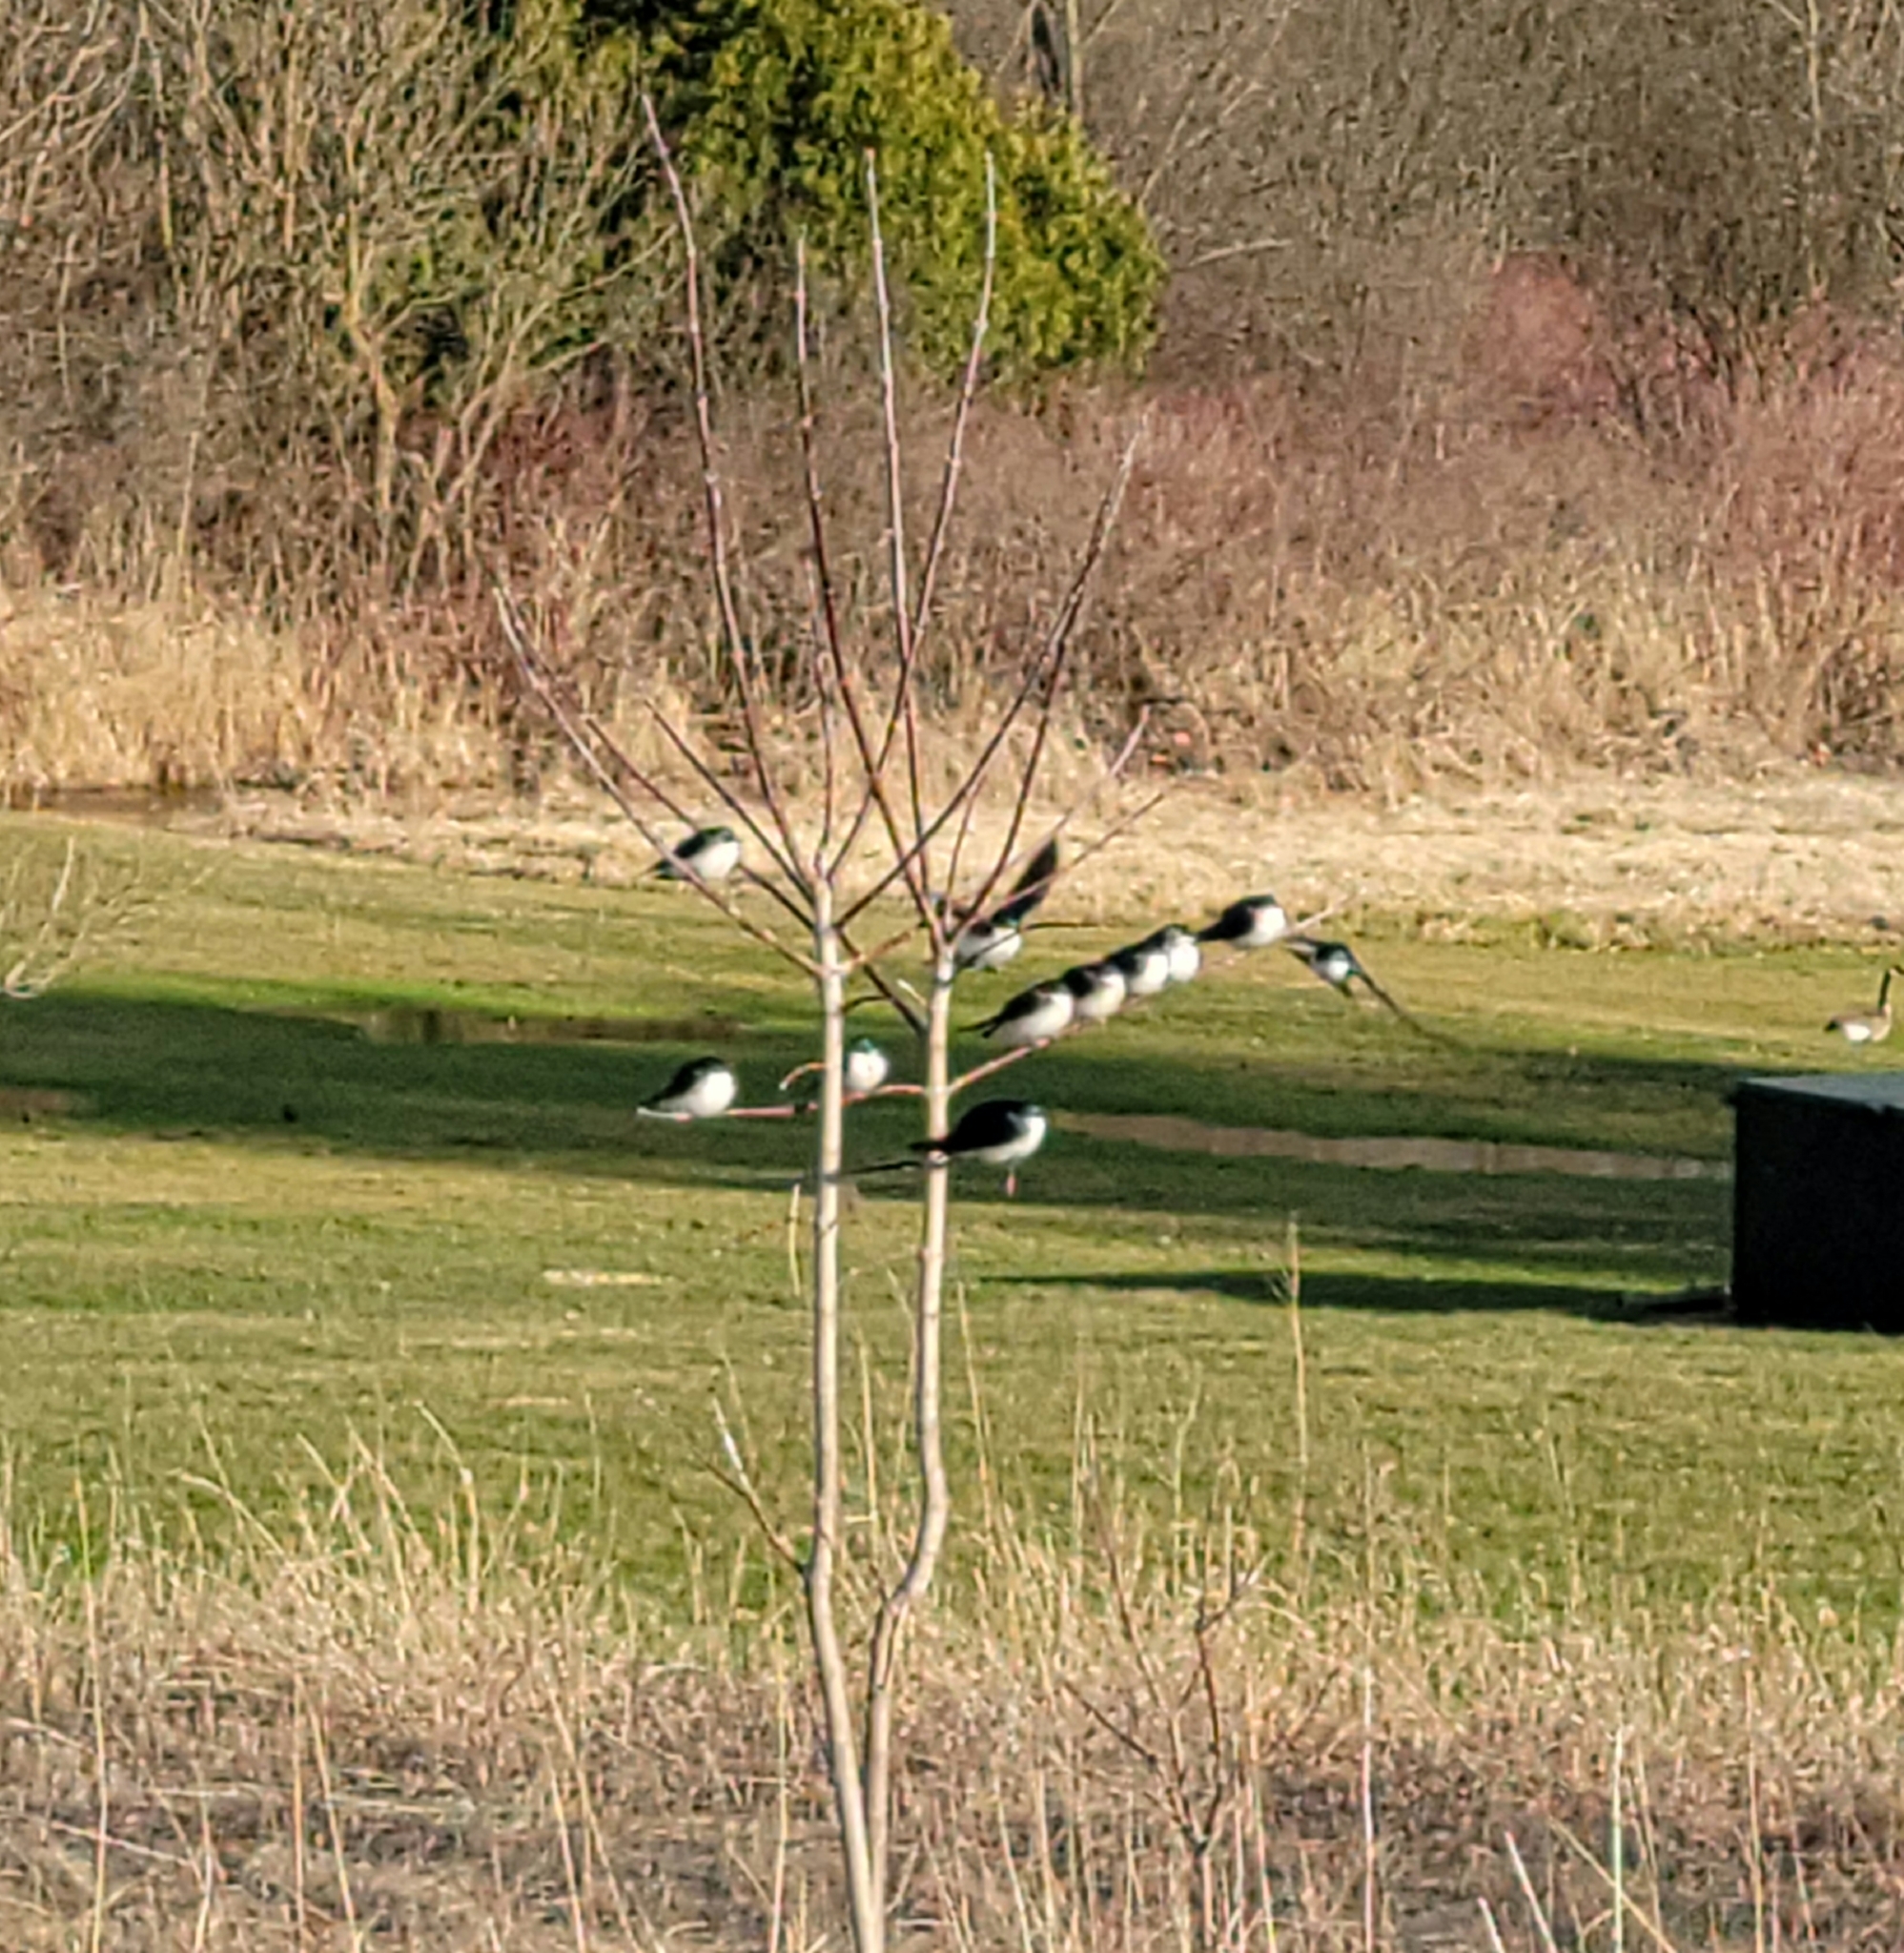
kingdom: Animalia
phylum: Chordata
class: Aves
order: Passeriformes
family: Hirundinidae
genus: Tachycineta
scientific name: Tachycineta bicolor
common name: Tree swallow
